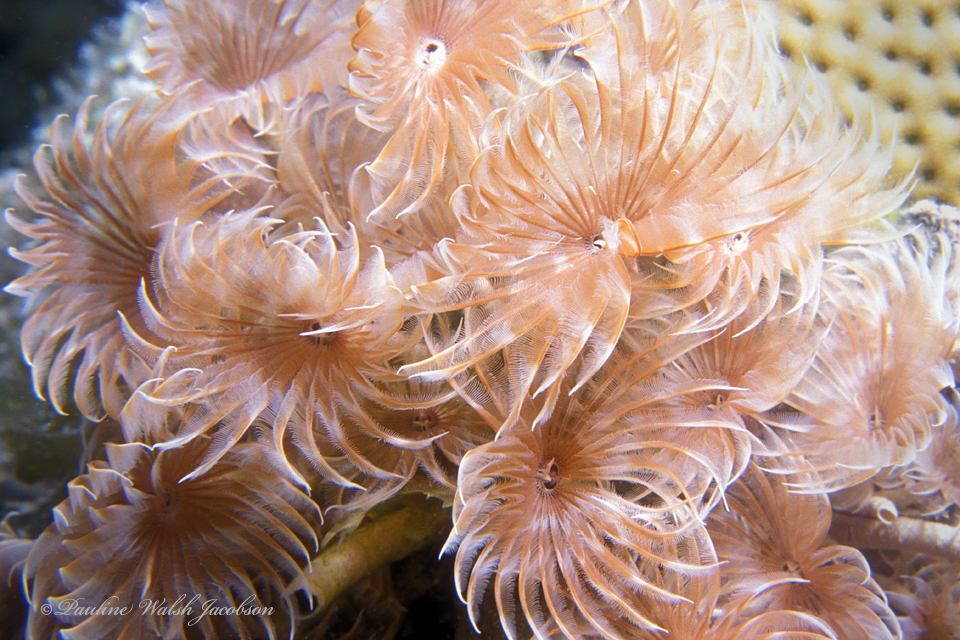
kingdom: Animalia
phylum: Annelida
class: Polychaeta
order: Sabellida
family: Sabellidae
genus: Bispira
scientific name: Bispira brunnea
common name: Social feather duster
